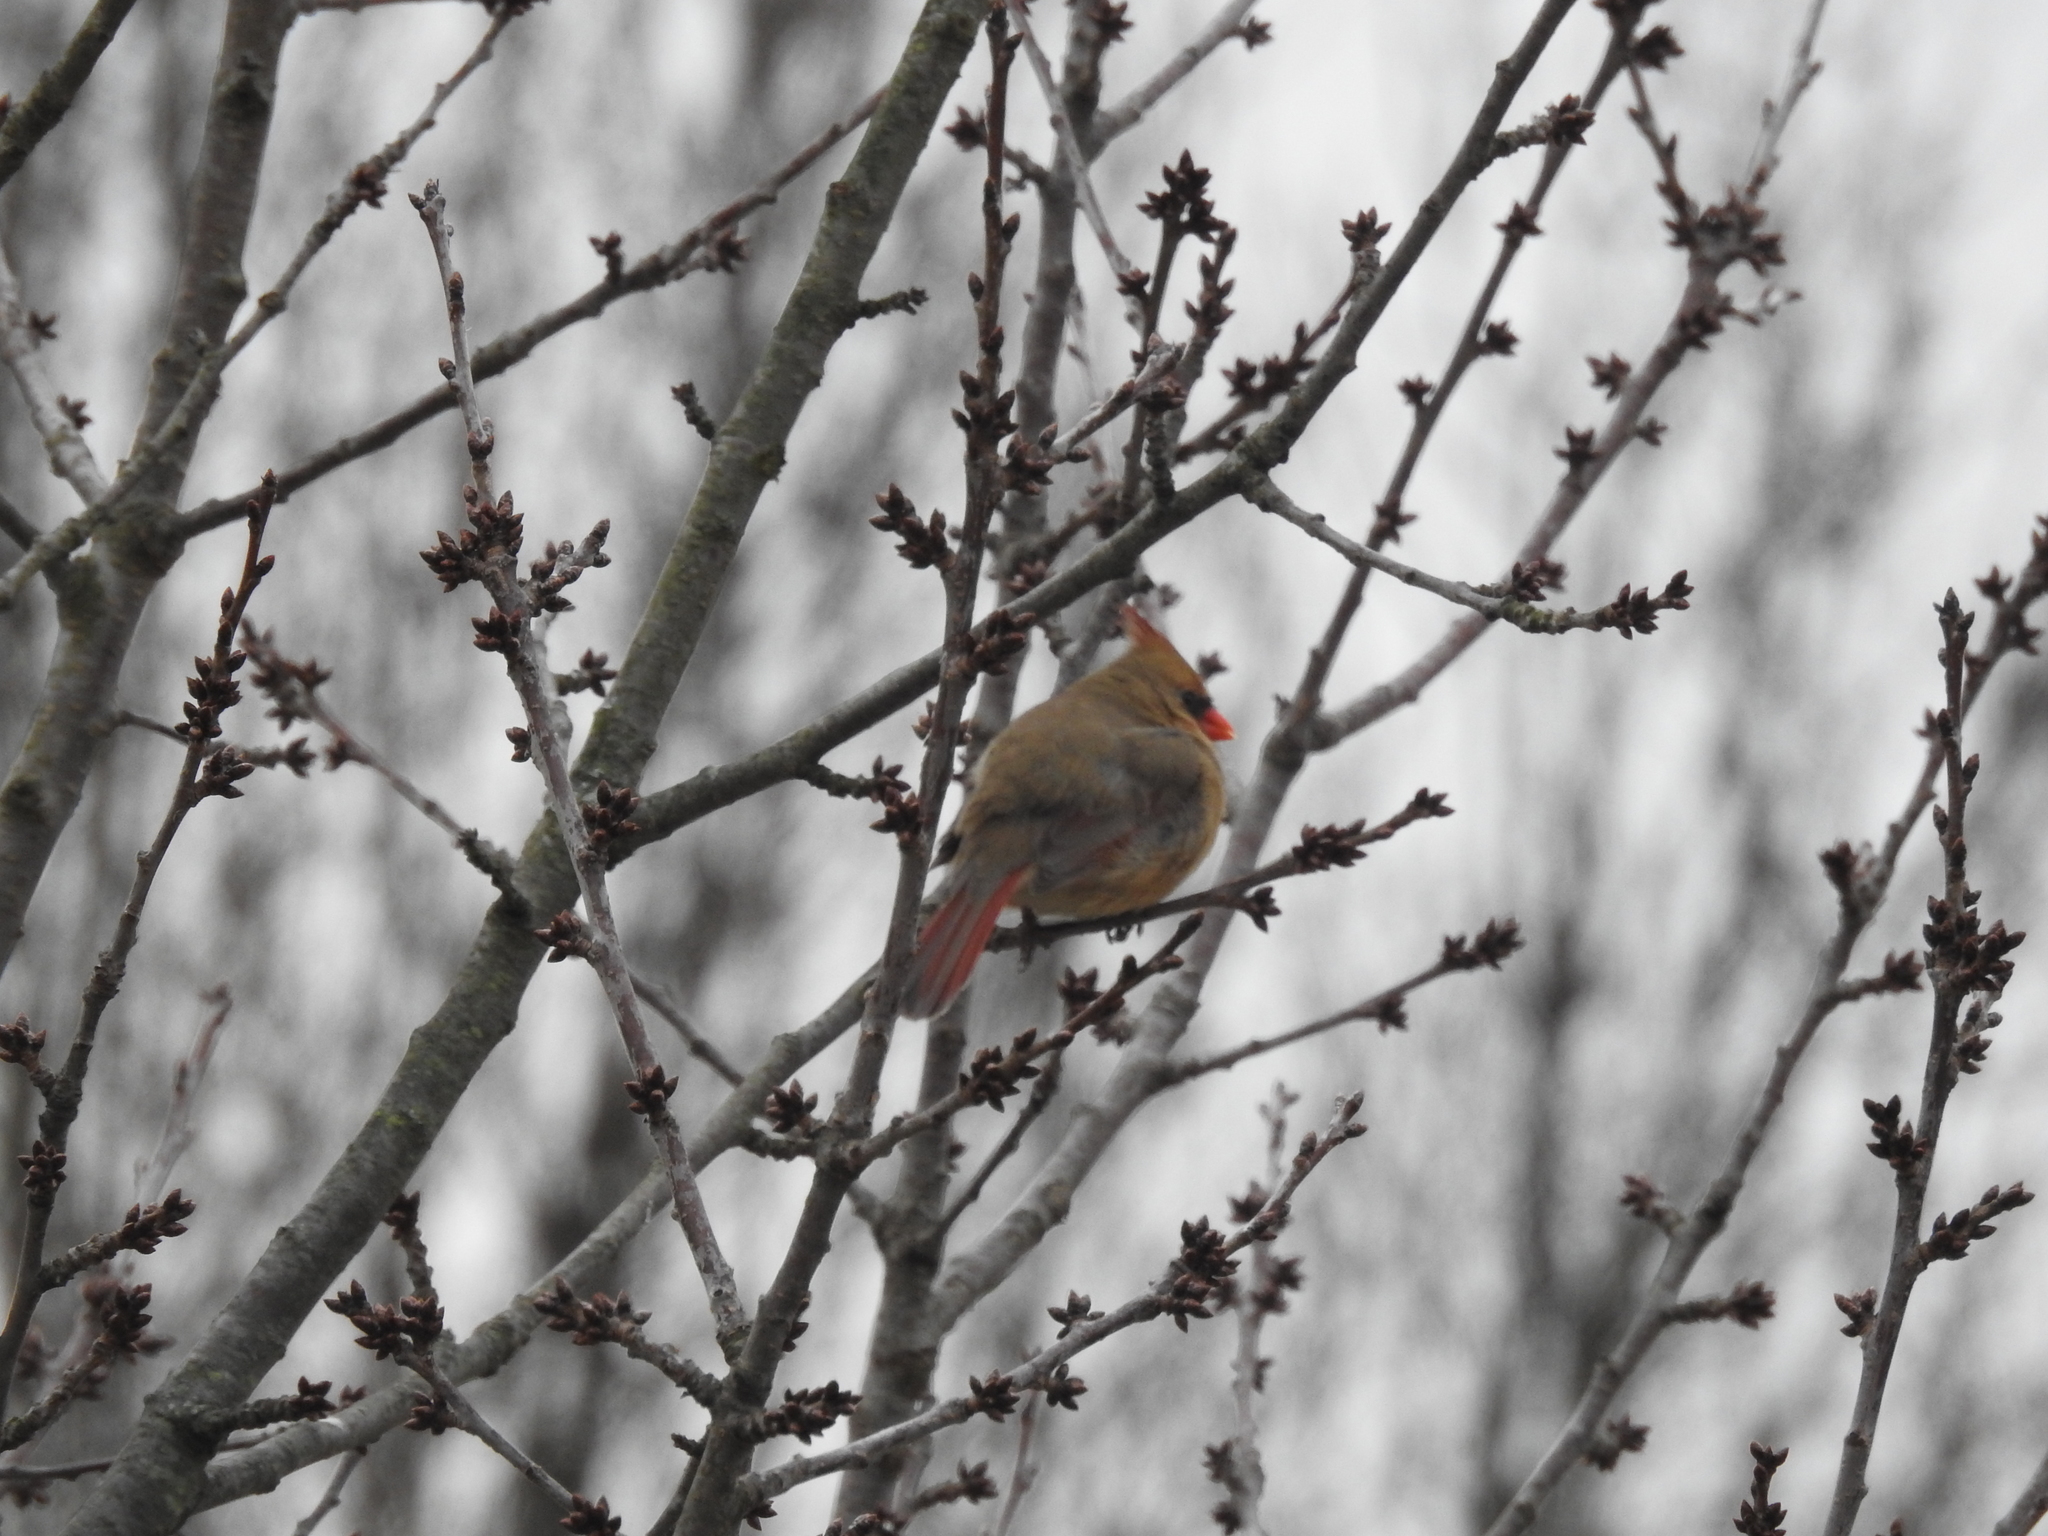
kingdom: Animalia
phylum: Chordata
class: Aves
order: Passeriformes
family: Cardinalidae
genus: Cardinalis
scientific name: Cardinalis cardinalis
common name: Northern cardinal
